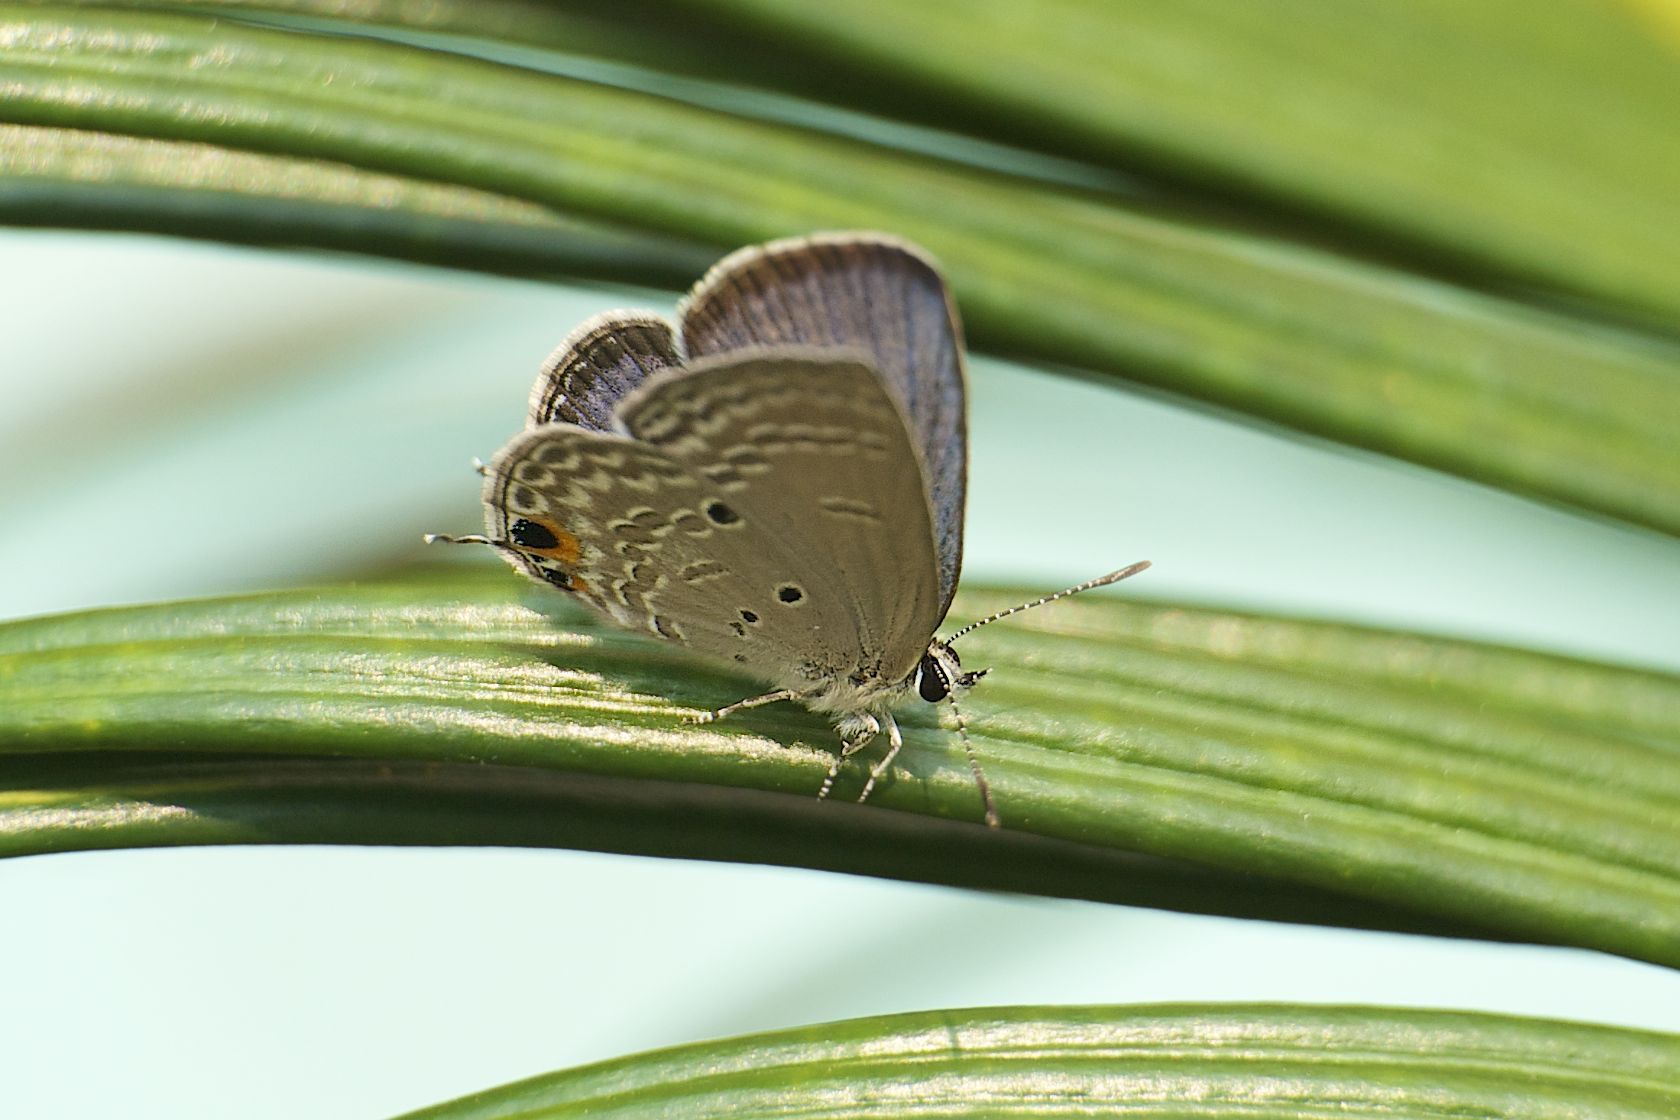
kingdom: Animalia
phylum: Arthropoda
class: Insecta
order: Lepidoptera
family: Lycaenidae
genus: Luthrodes
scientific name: Luthrodes pandava
